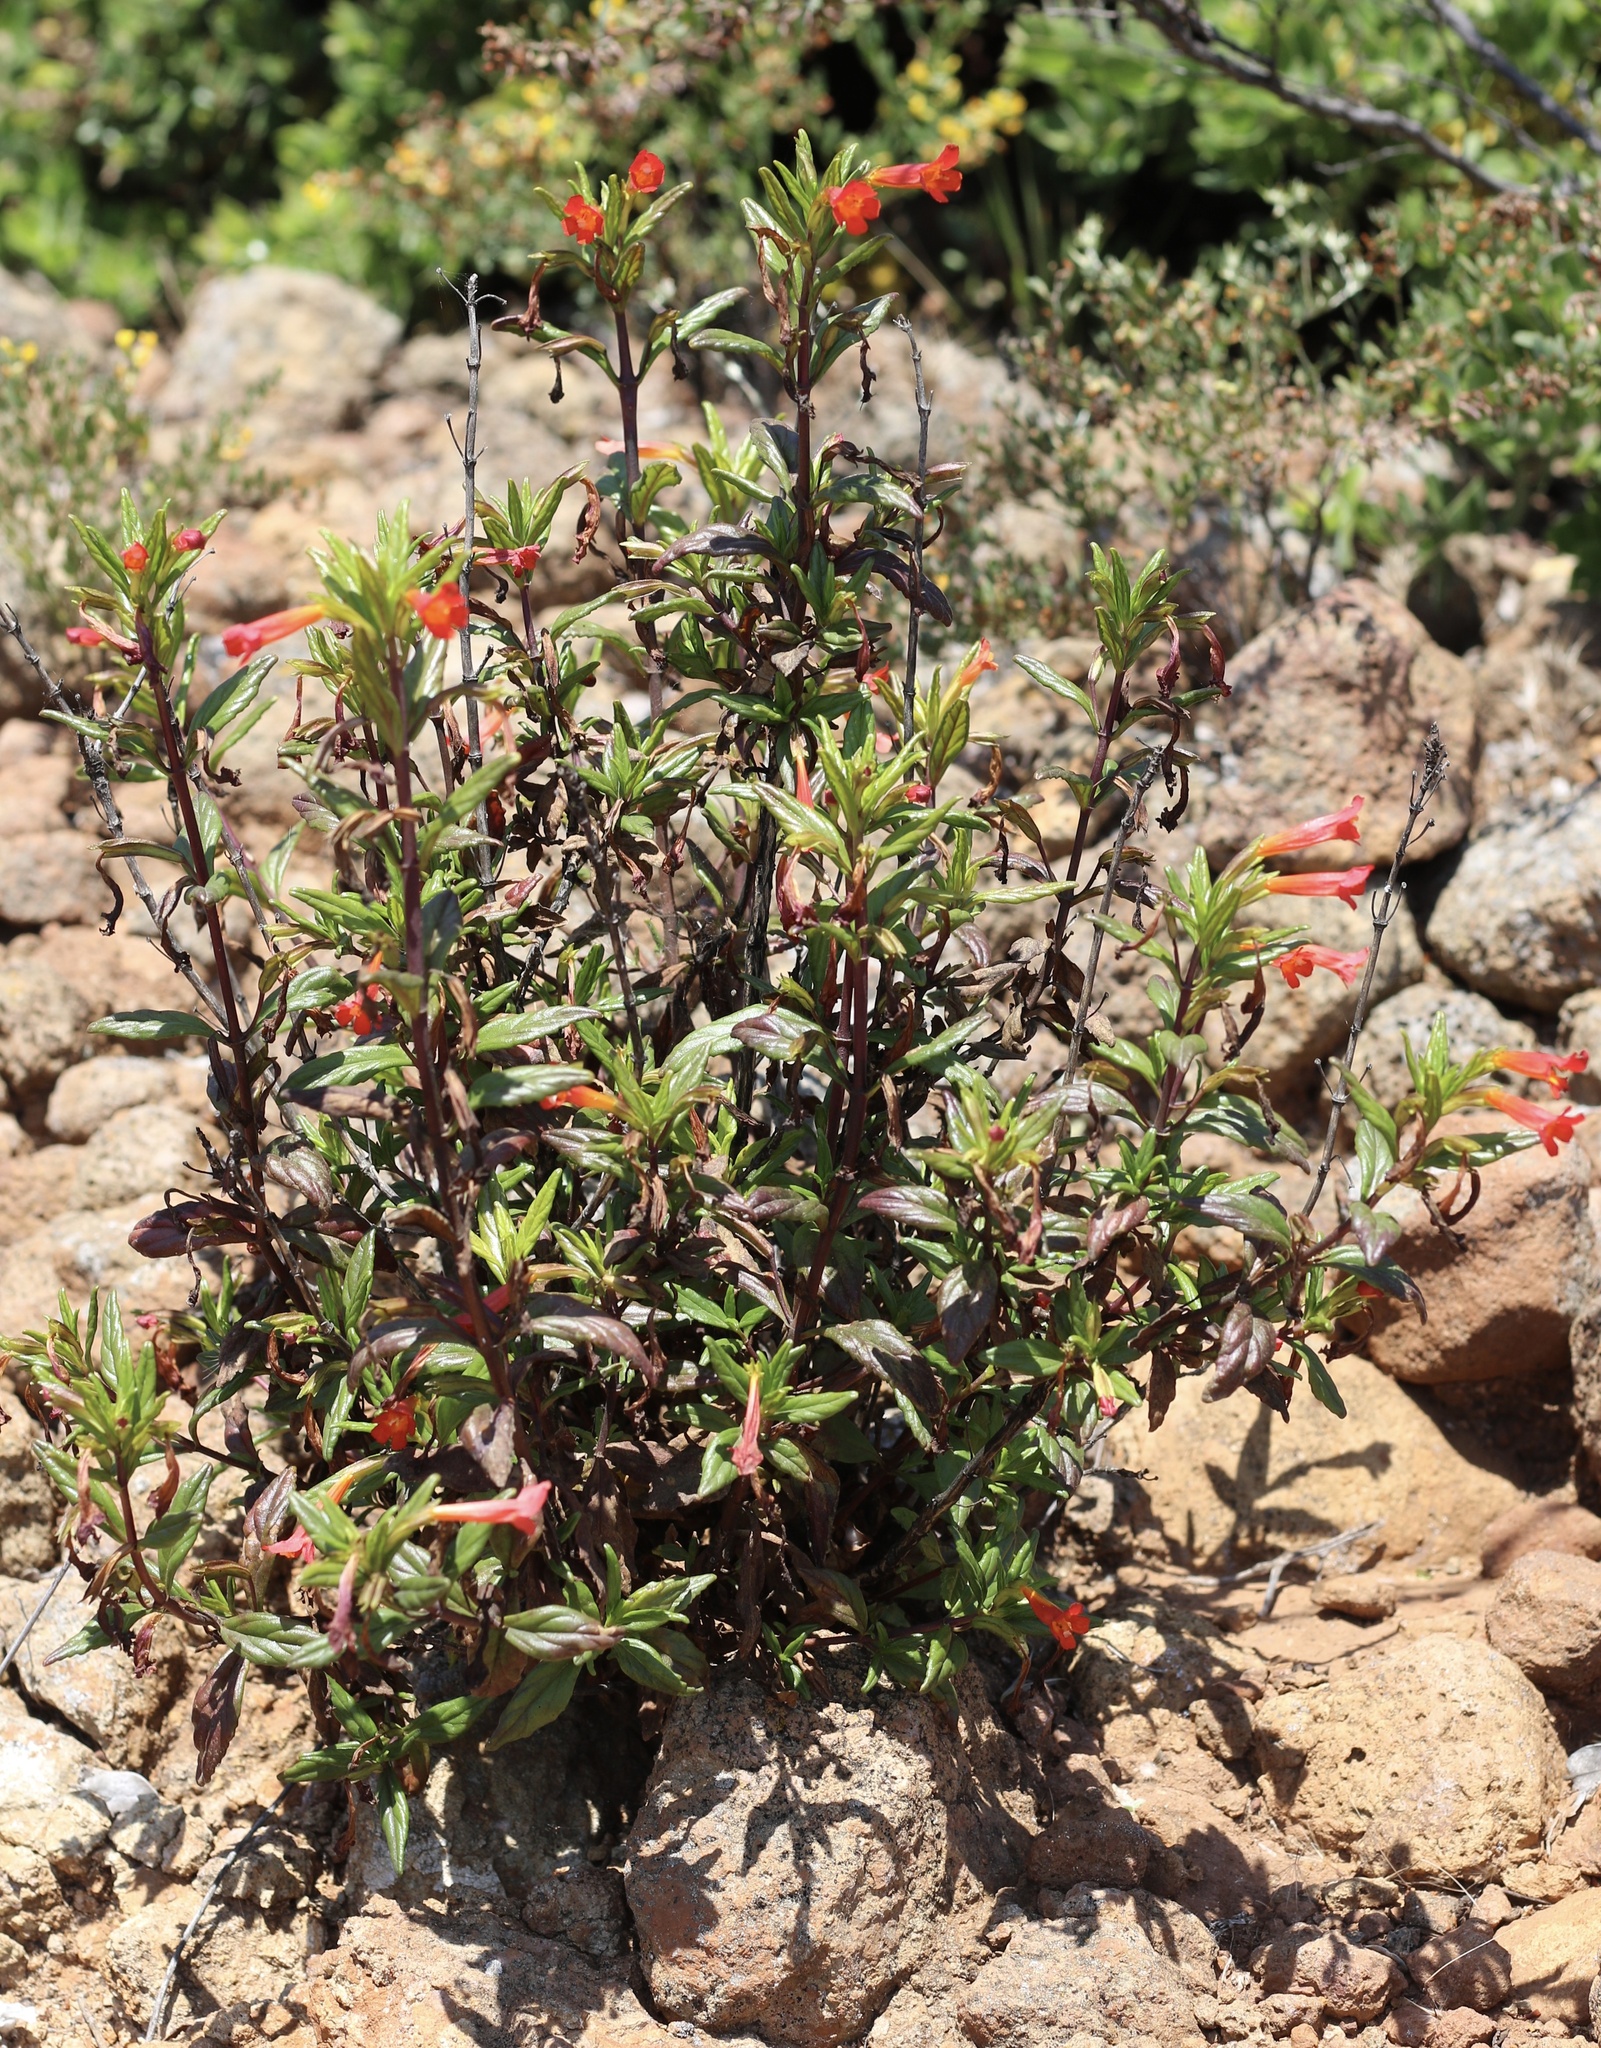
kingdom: Plantae
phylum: Tracheophyta
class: Magnoliopsida
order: Lamiales
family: Phrymaceae
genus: Diplacus
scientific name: Diplacus parviflorus
